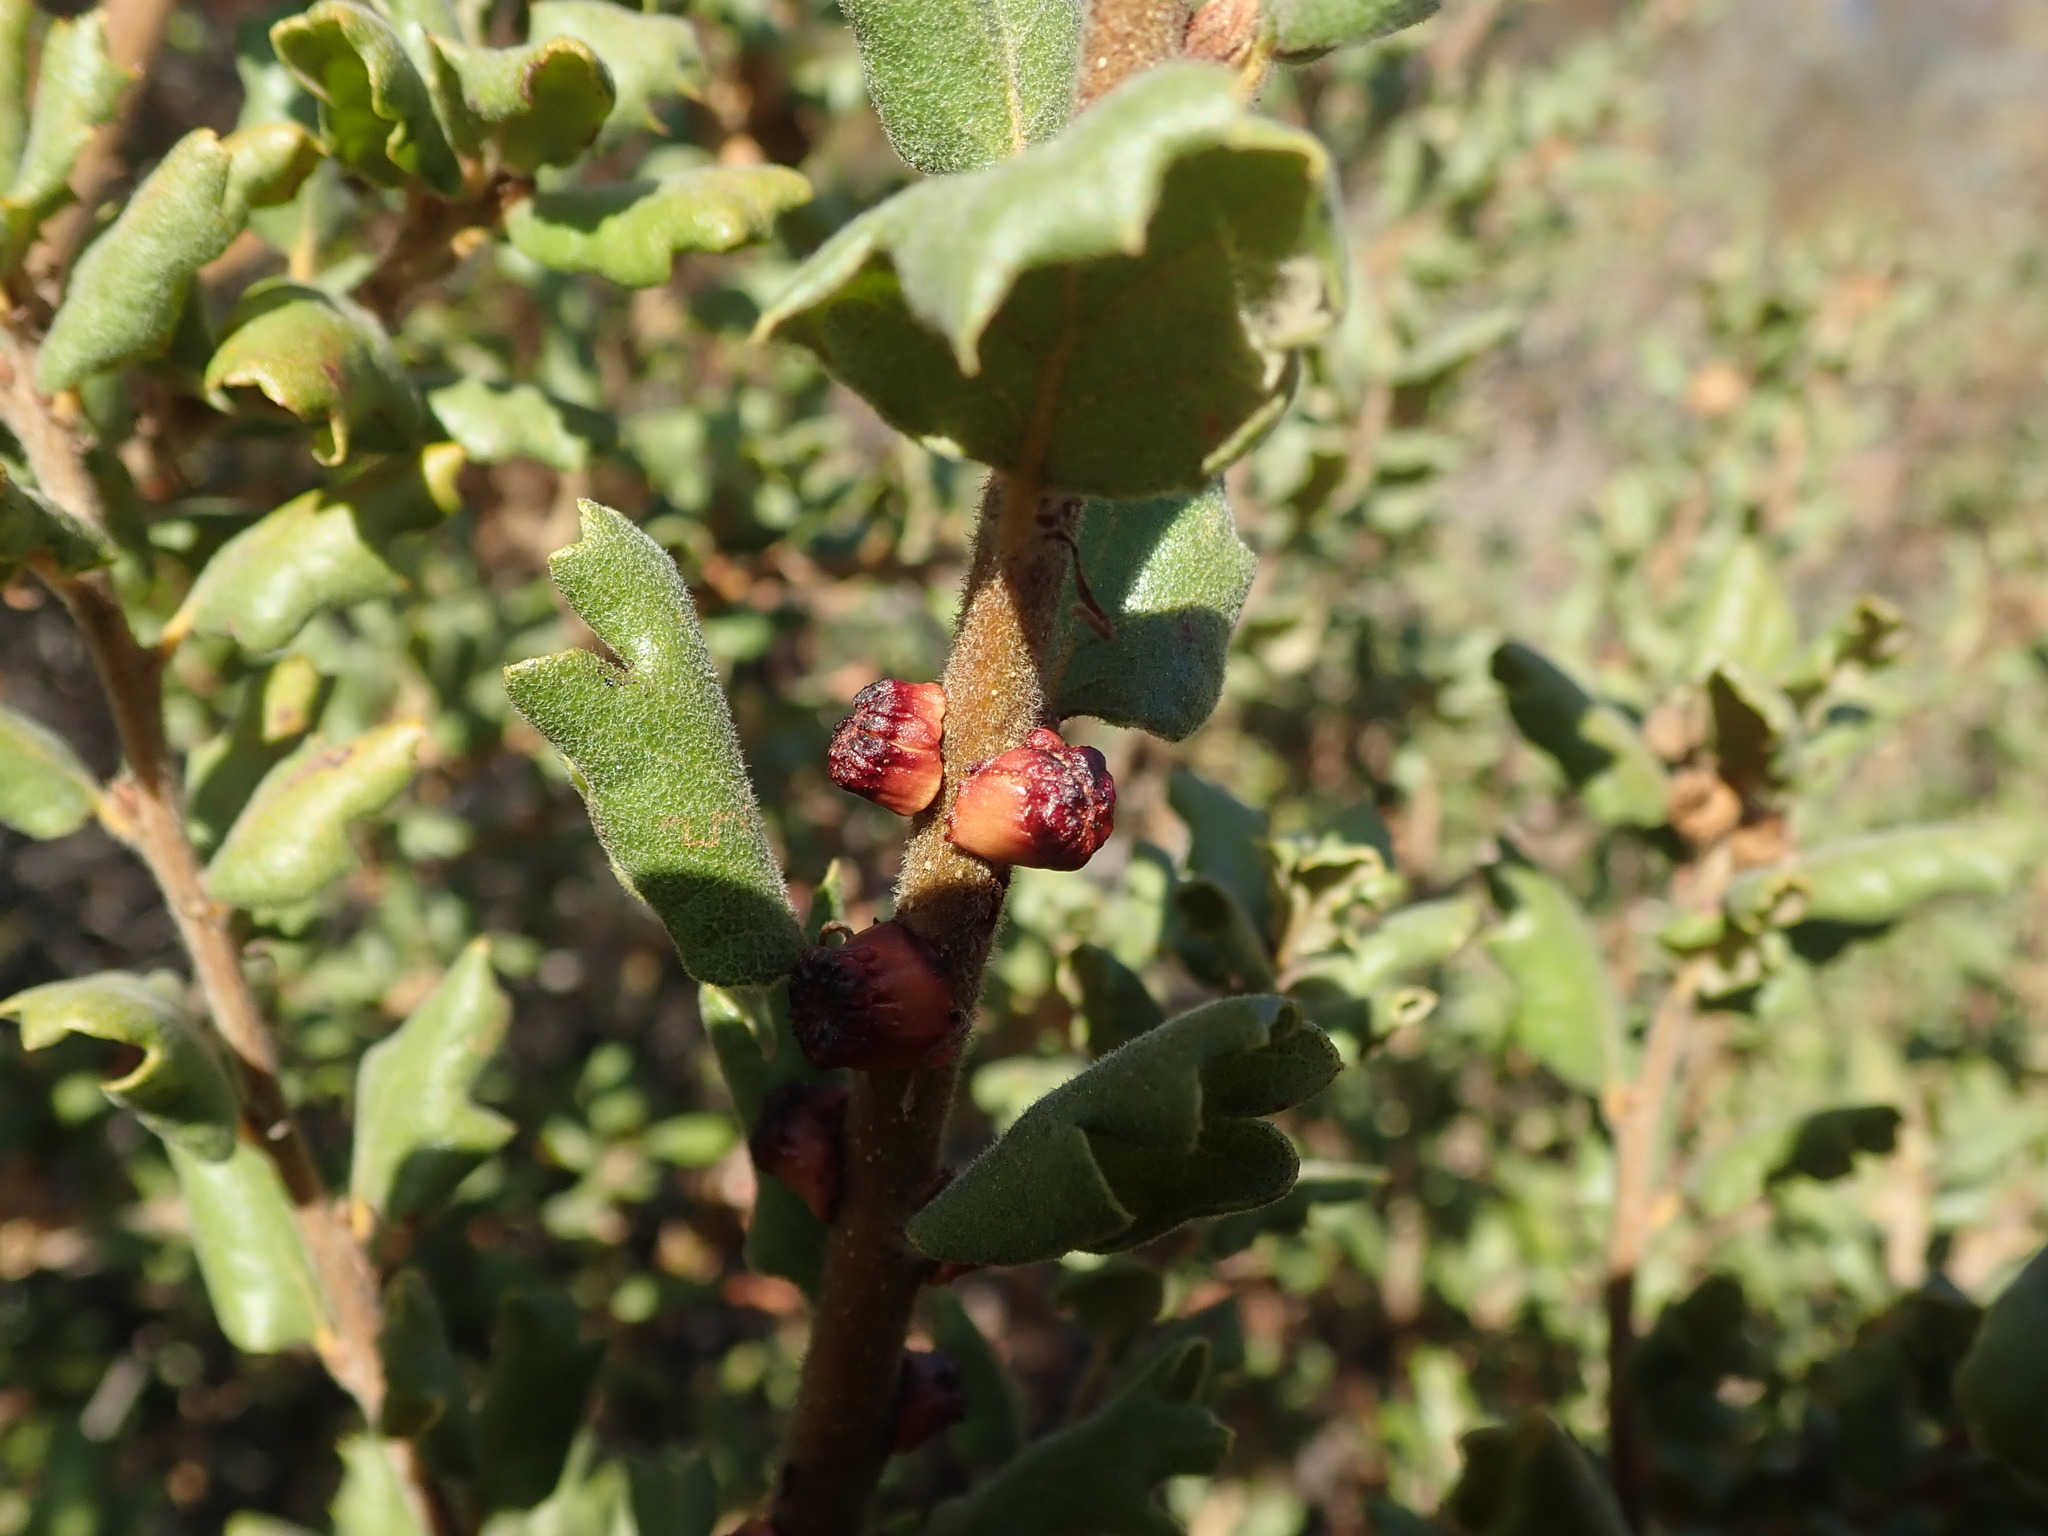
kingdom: Animalia
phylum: Arthropoda
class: Insecta
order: Hymenoptera
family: Cynipidae
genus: Disholcaspis
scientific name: Disholcaspis prehensa
